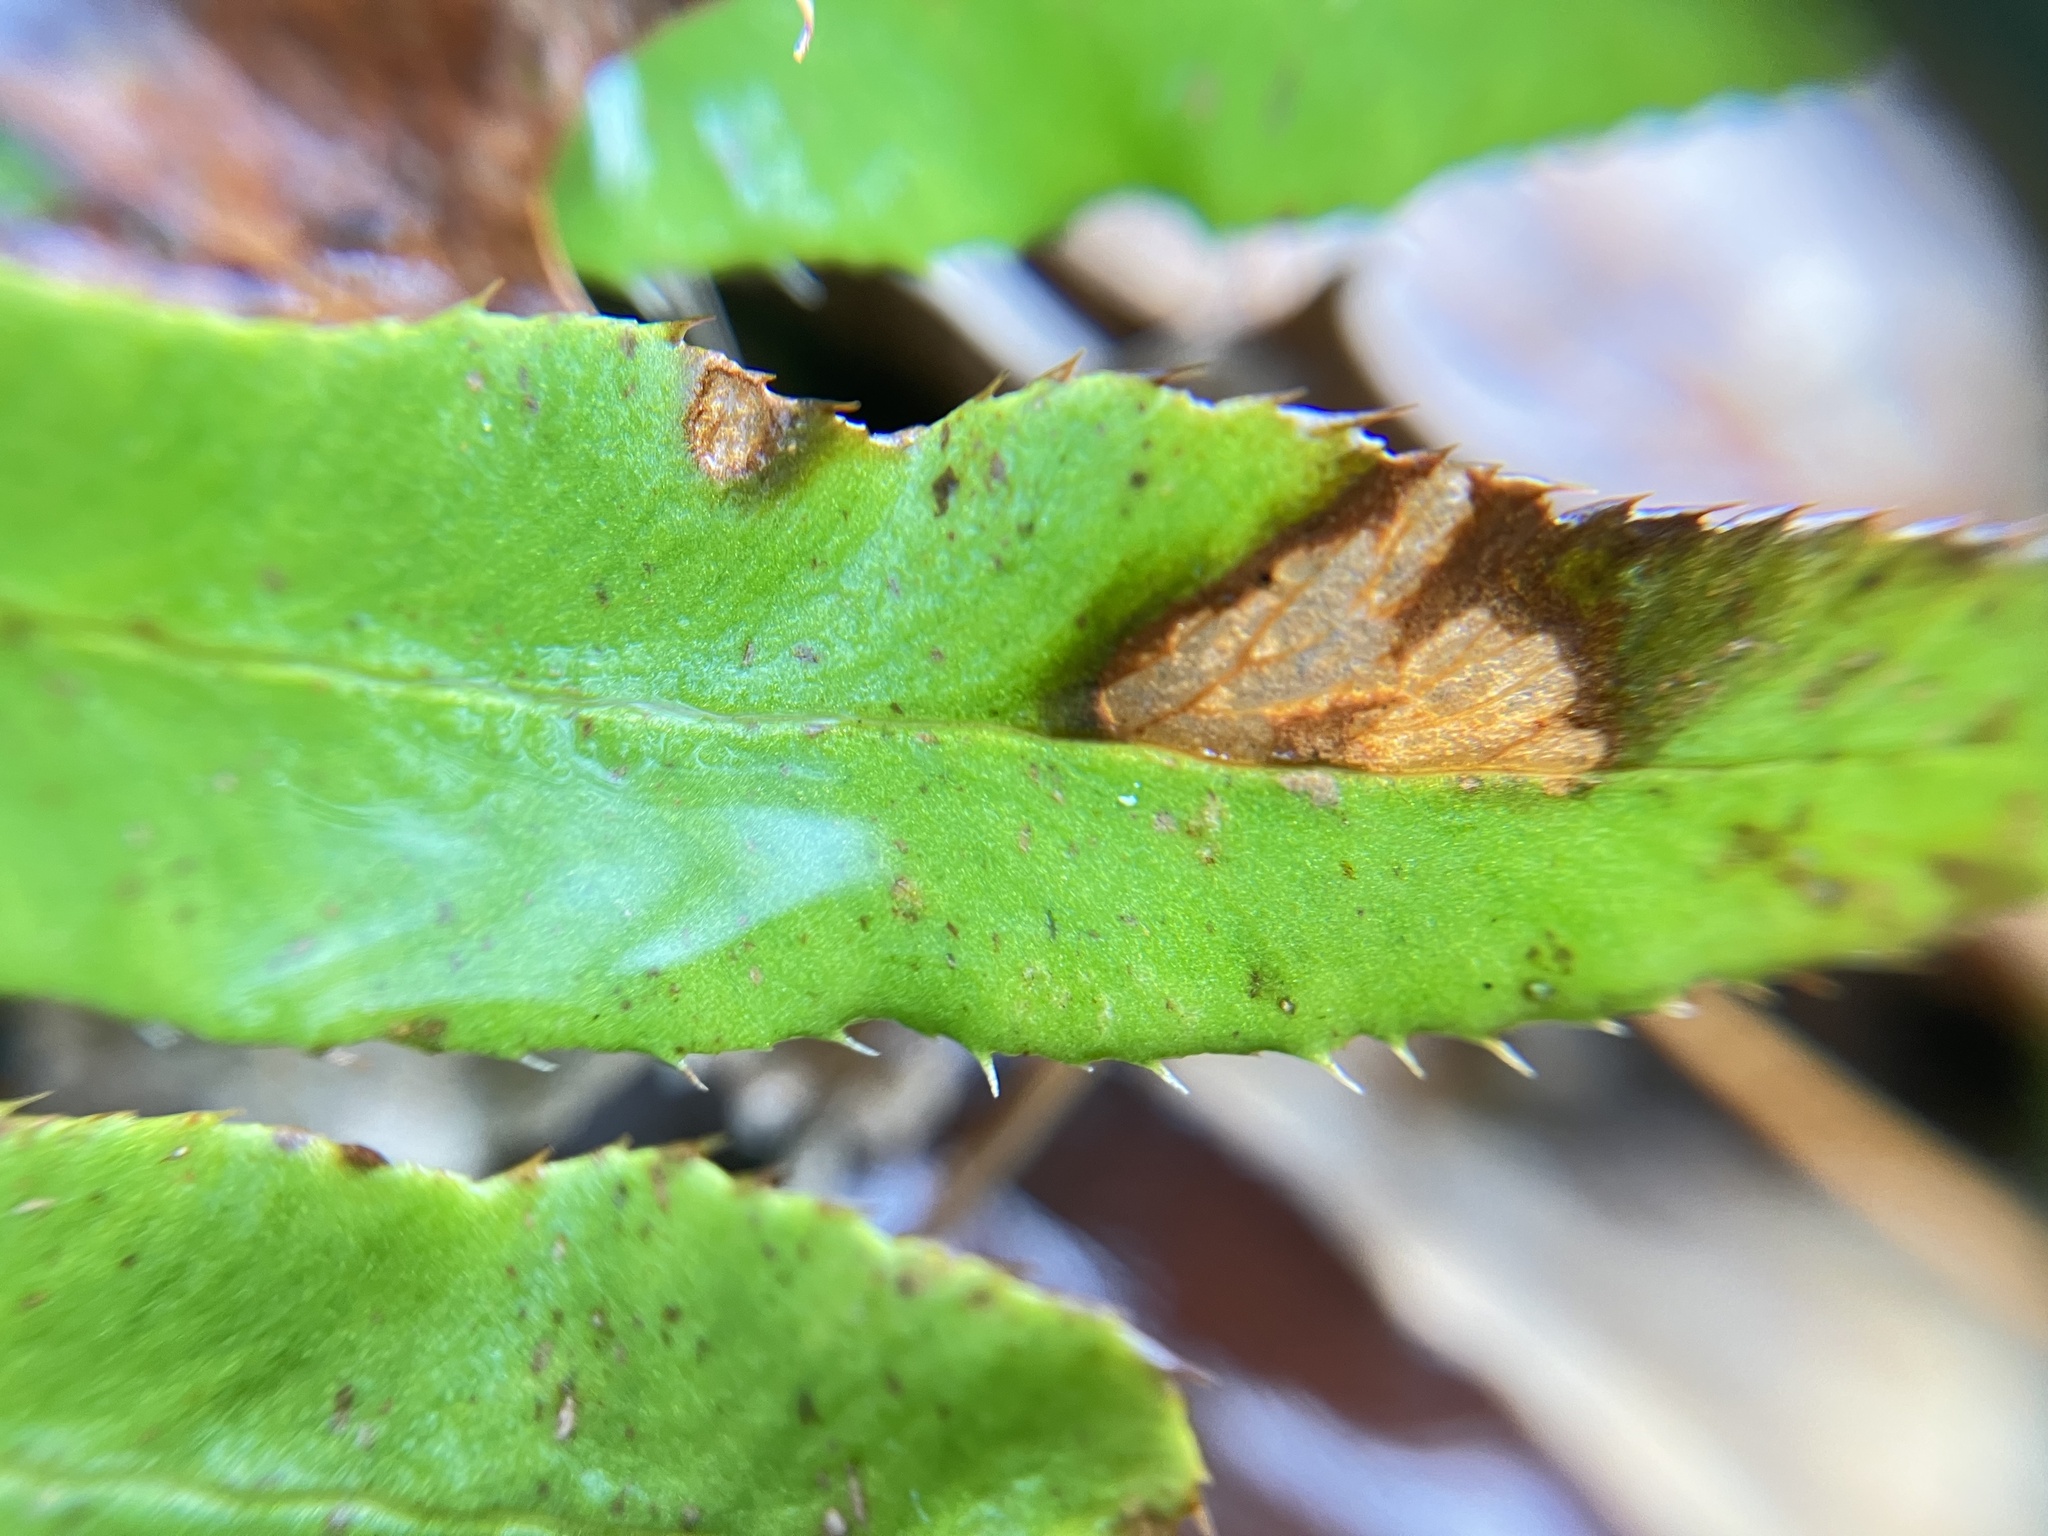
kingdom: Plantae
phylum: Tracheophyta
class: Polypodiopsida
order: Polypodiales
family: Dryopteridaceae
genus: Polystichum
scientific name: Polystichum acrostichoides
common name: Christmas fern
